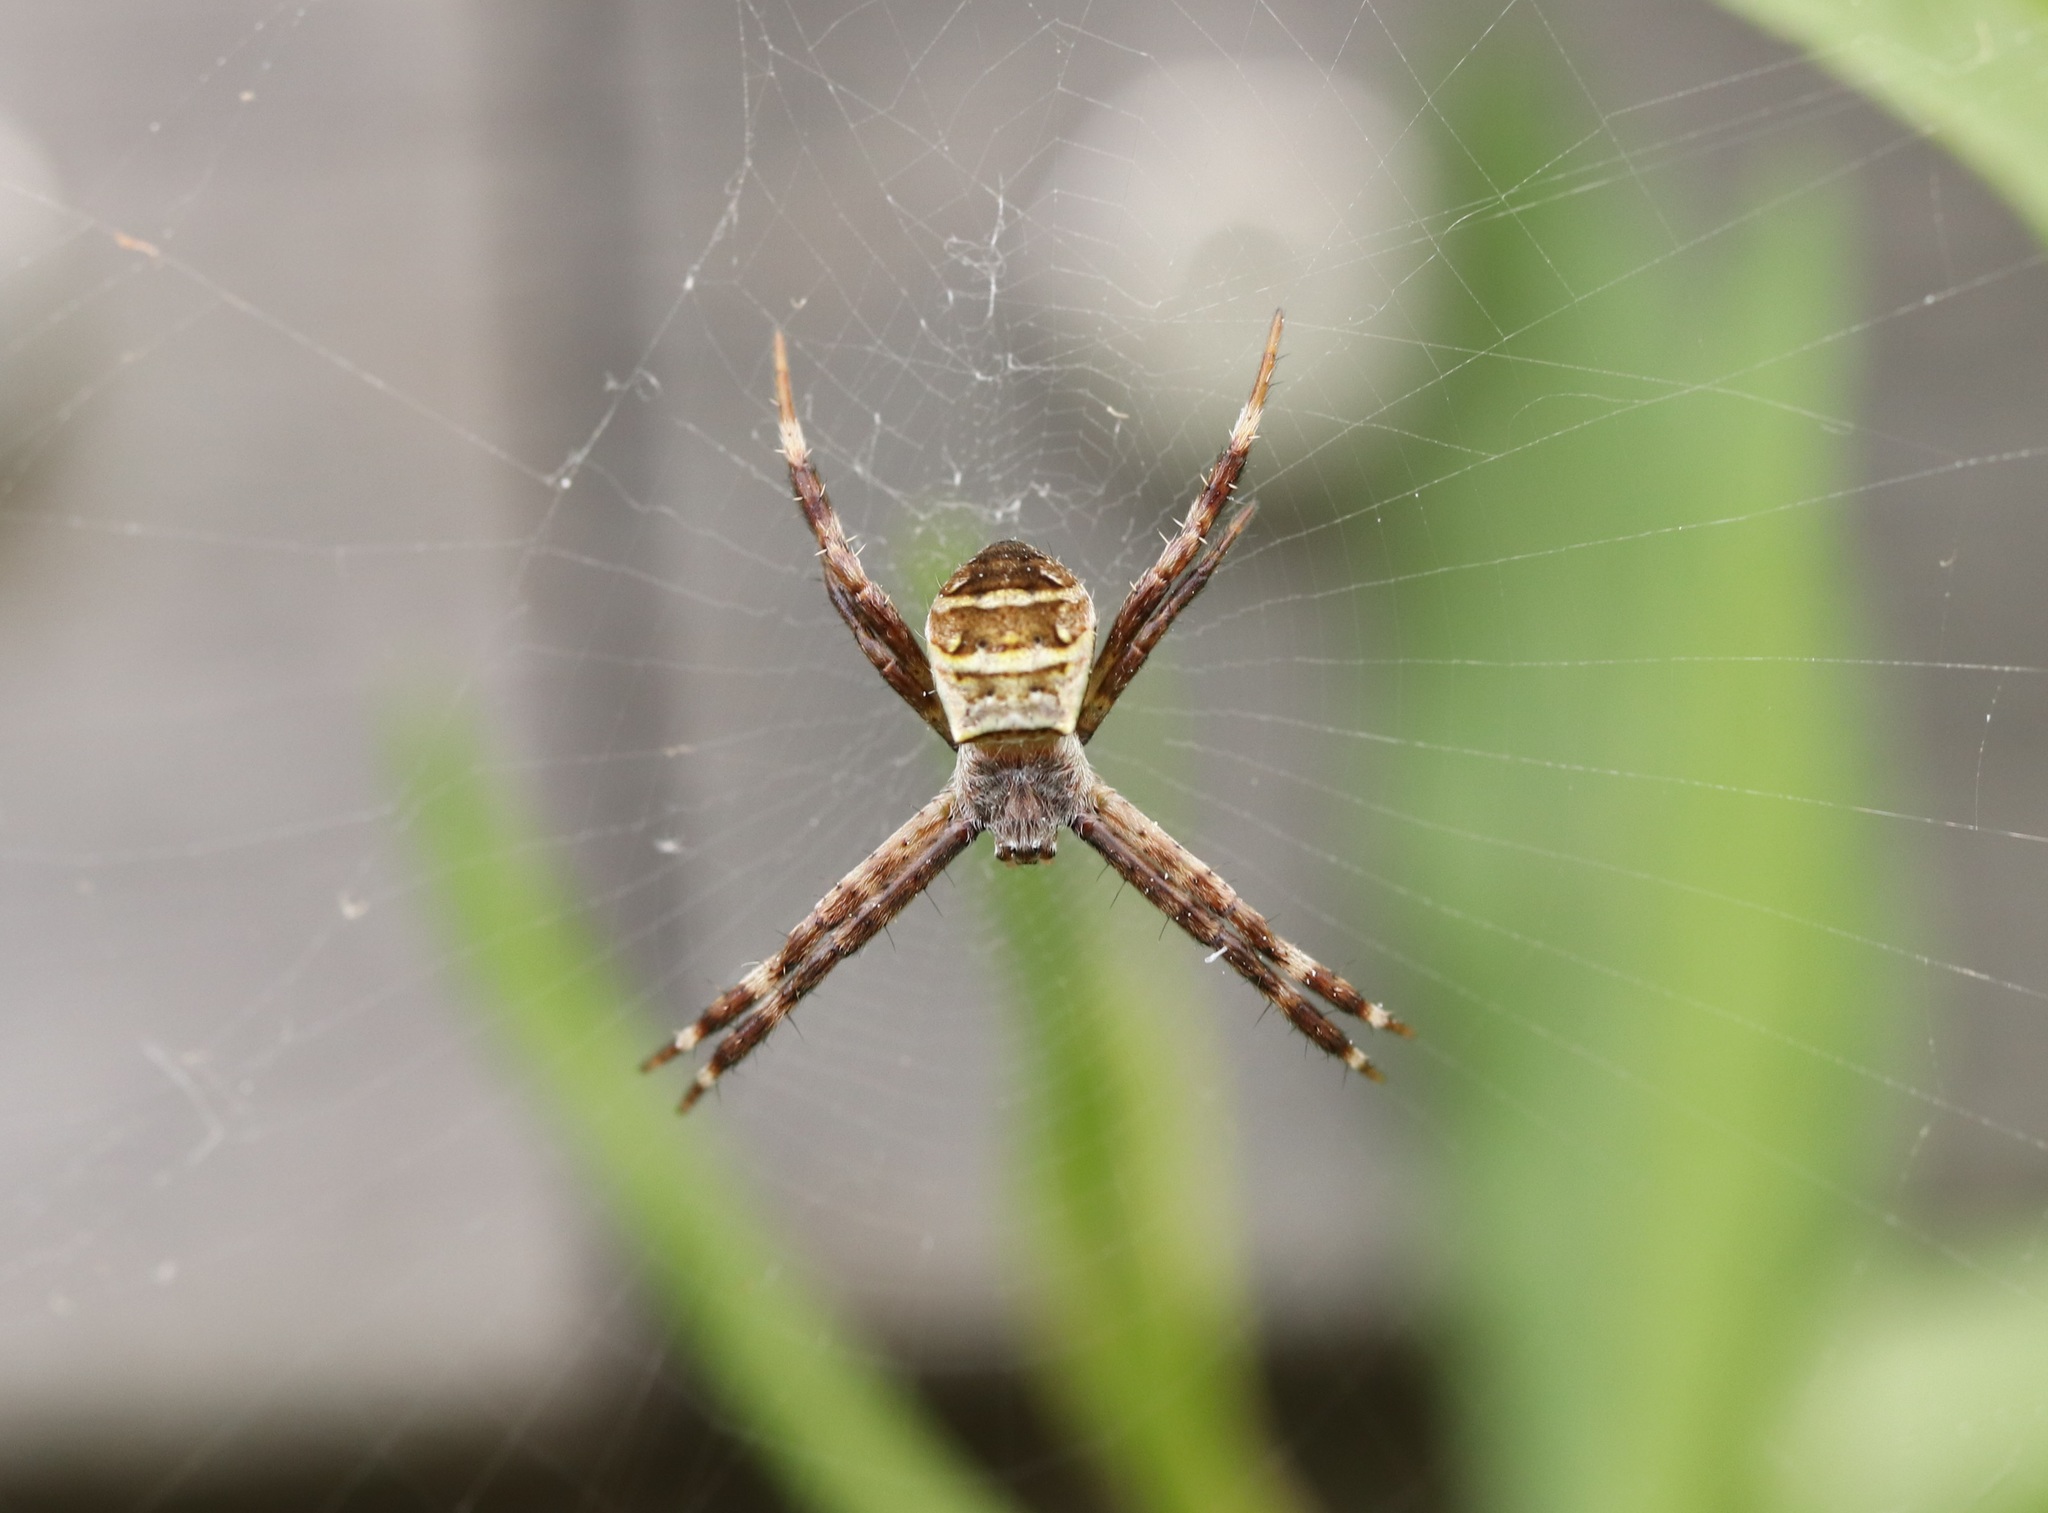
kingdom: Animalia
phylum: Arthropoda
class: Arachnida
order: Araneae
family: Araneidae
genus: Argiope
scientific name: Argiope amoena
